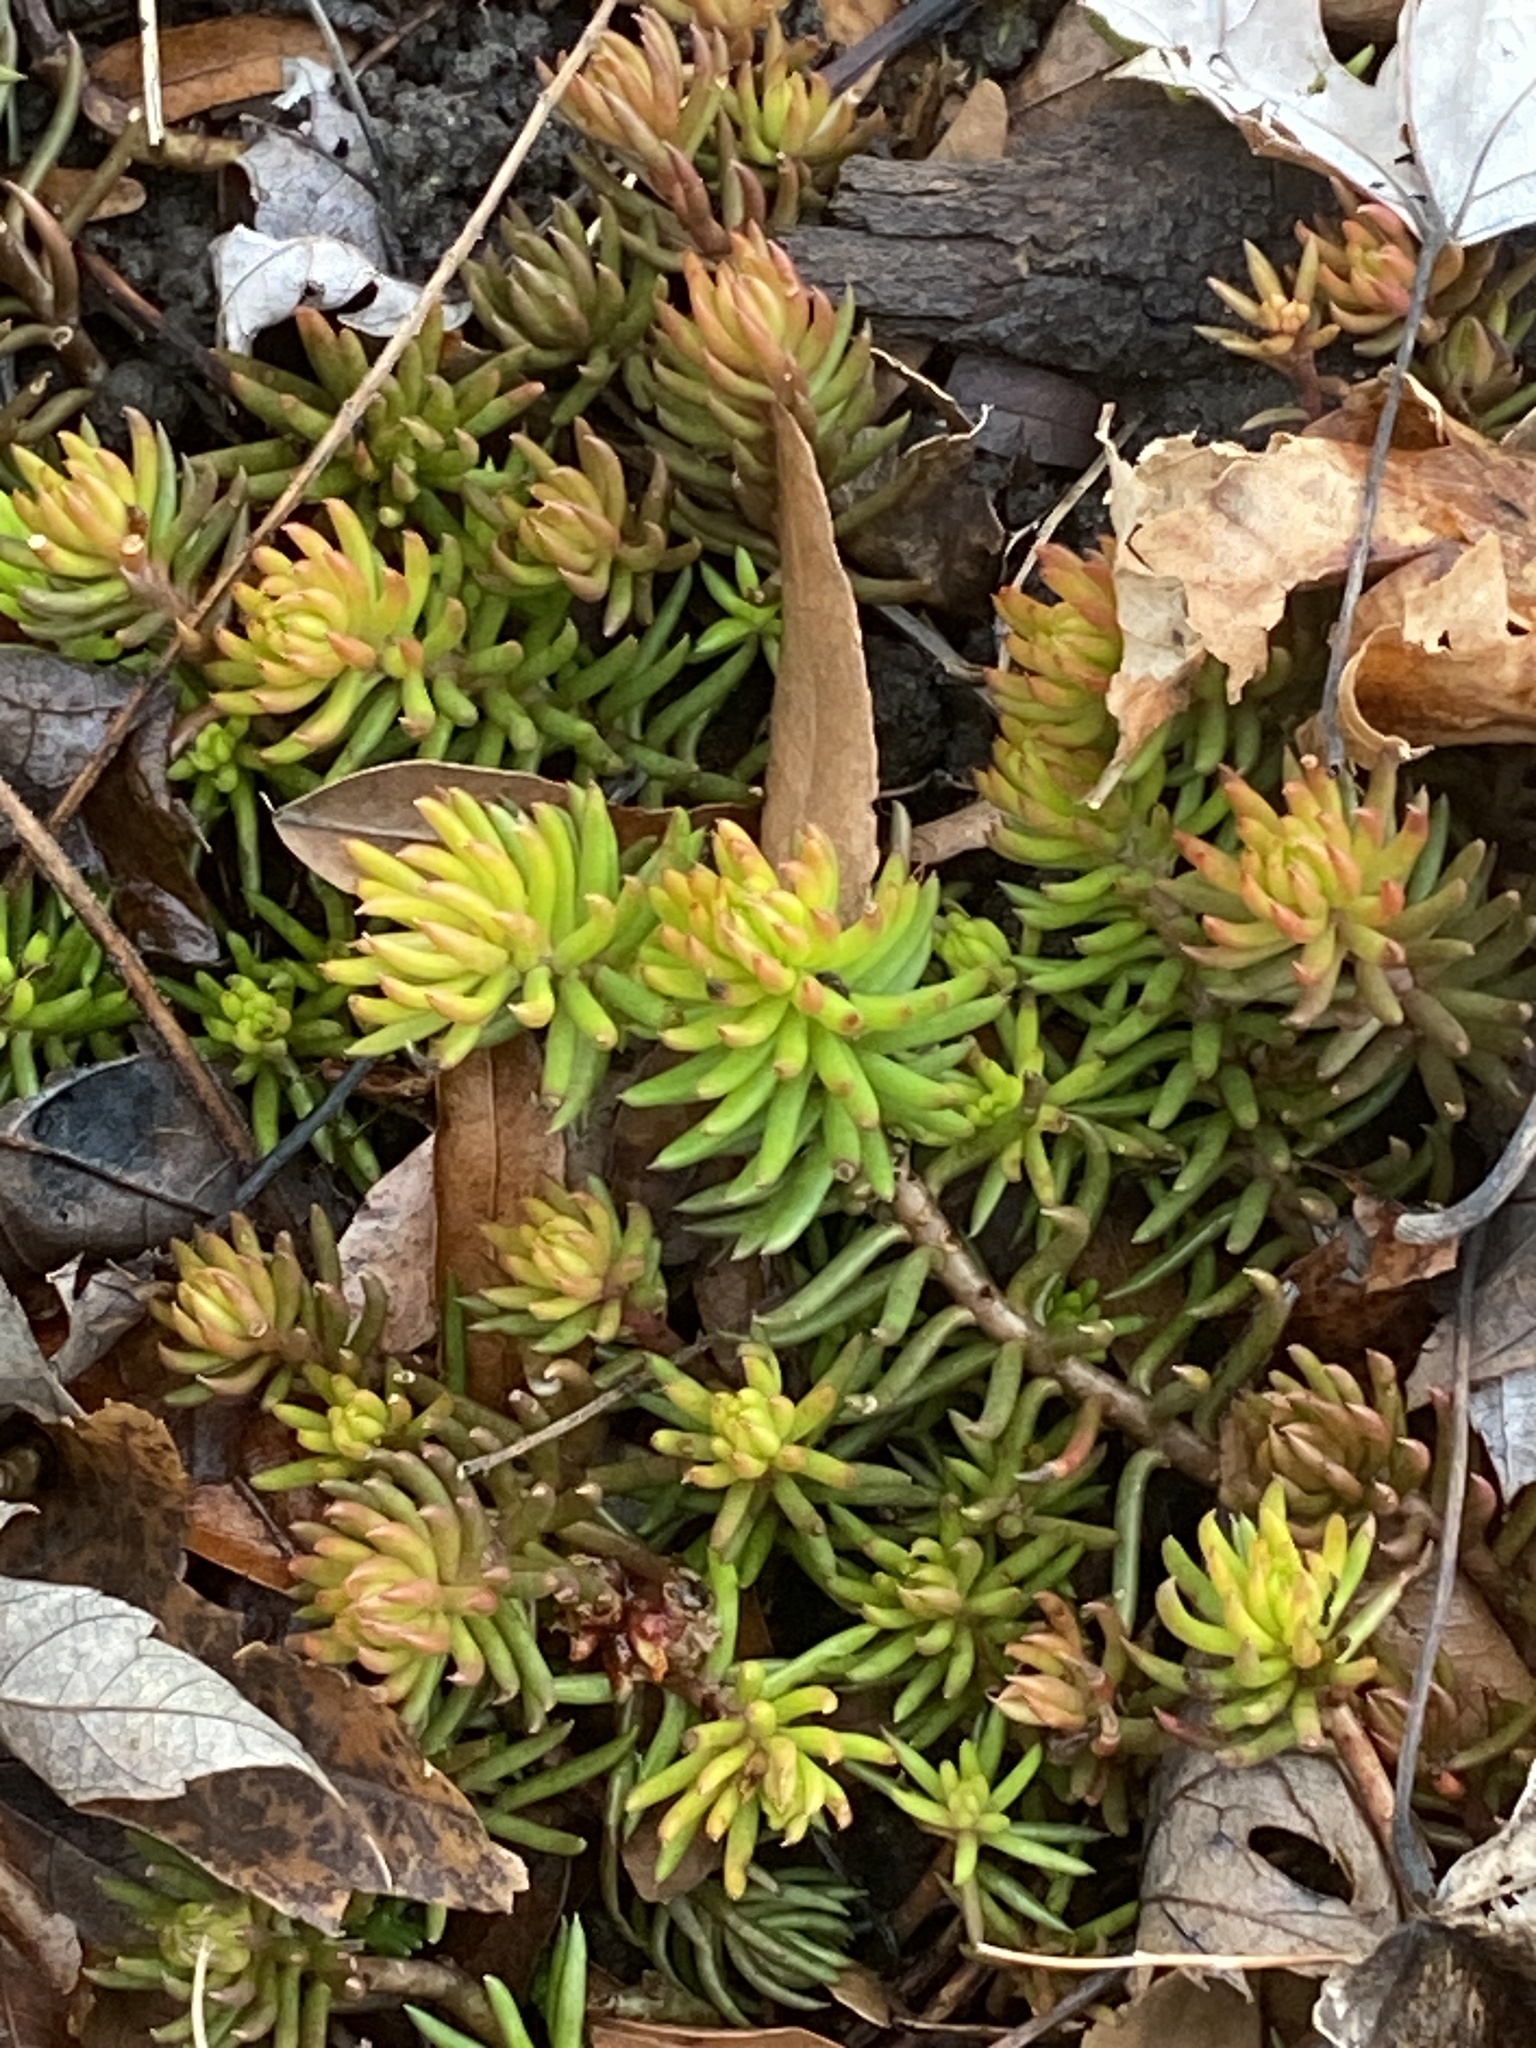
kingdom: Plantae
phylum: Tracheophyta
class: Magnoliopsida
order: Saxifragales
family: Crassulaceae
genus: Petrosedum
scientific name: Petrosedum rupestre
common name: Jenny's stonecrop
